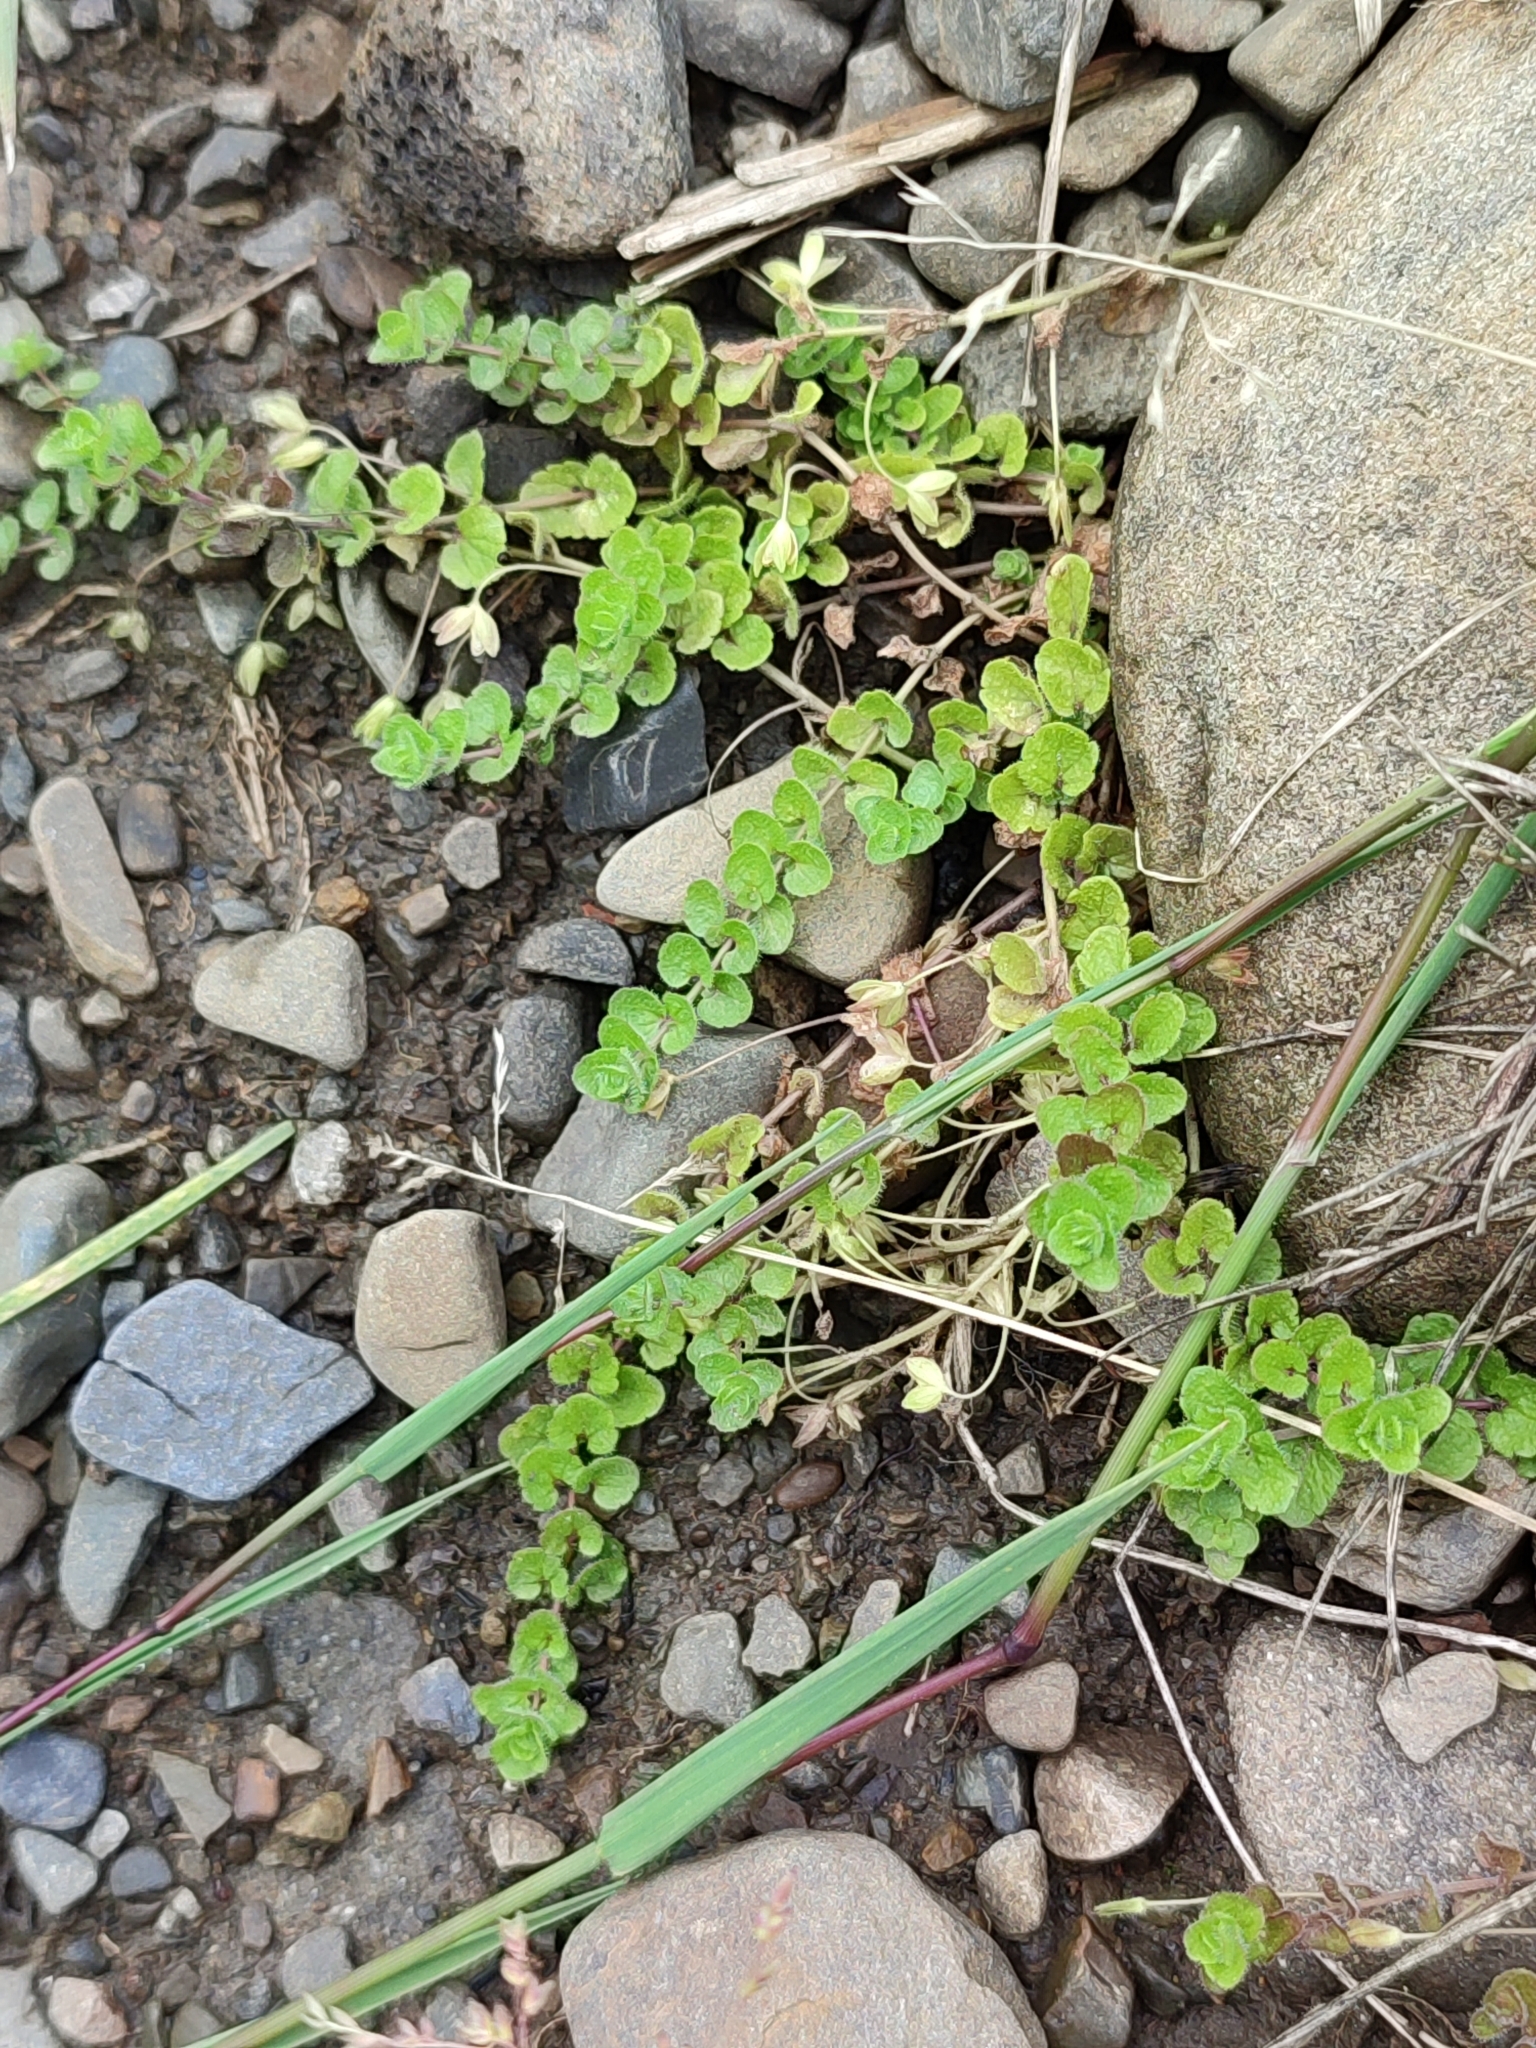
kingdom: Plantae
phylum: Tracheophyta
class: Magnoliopsida
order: Ericales
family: Primulaceae
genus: Lysimachia
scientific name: Lysimachia nummularia
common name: Moneywort
